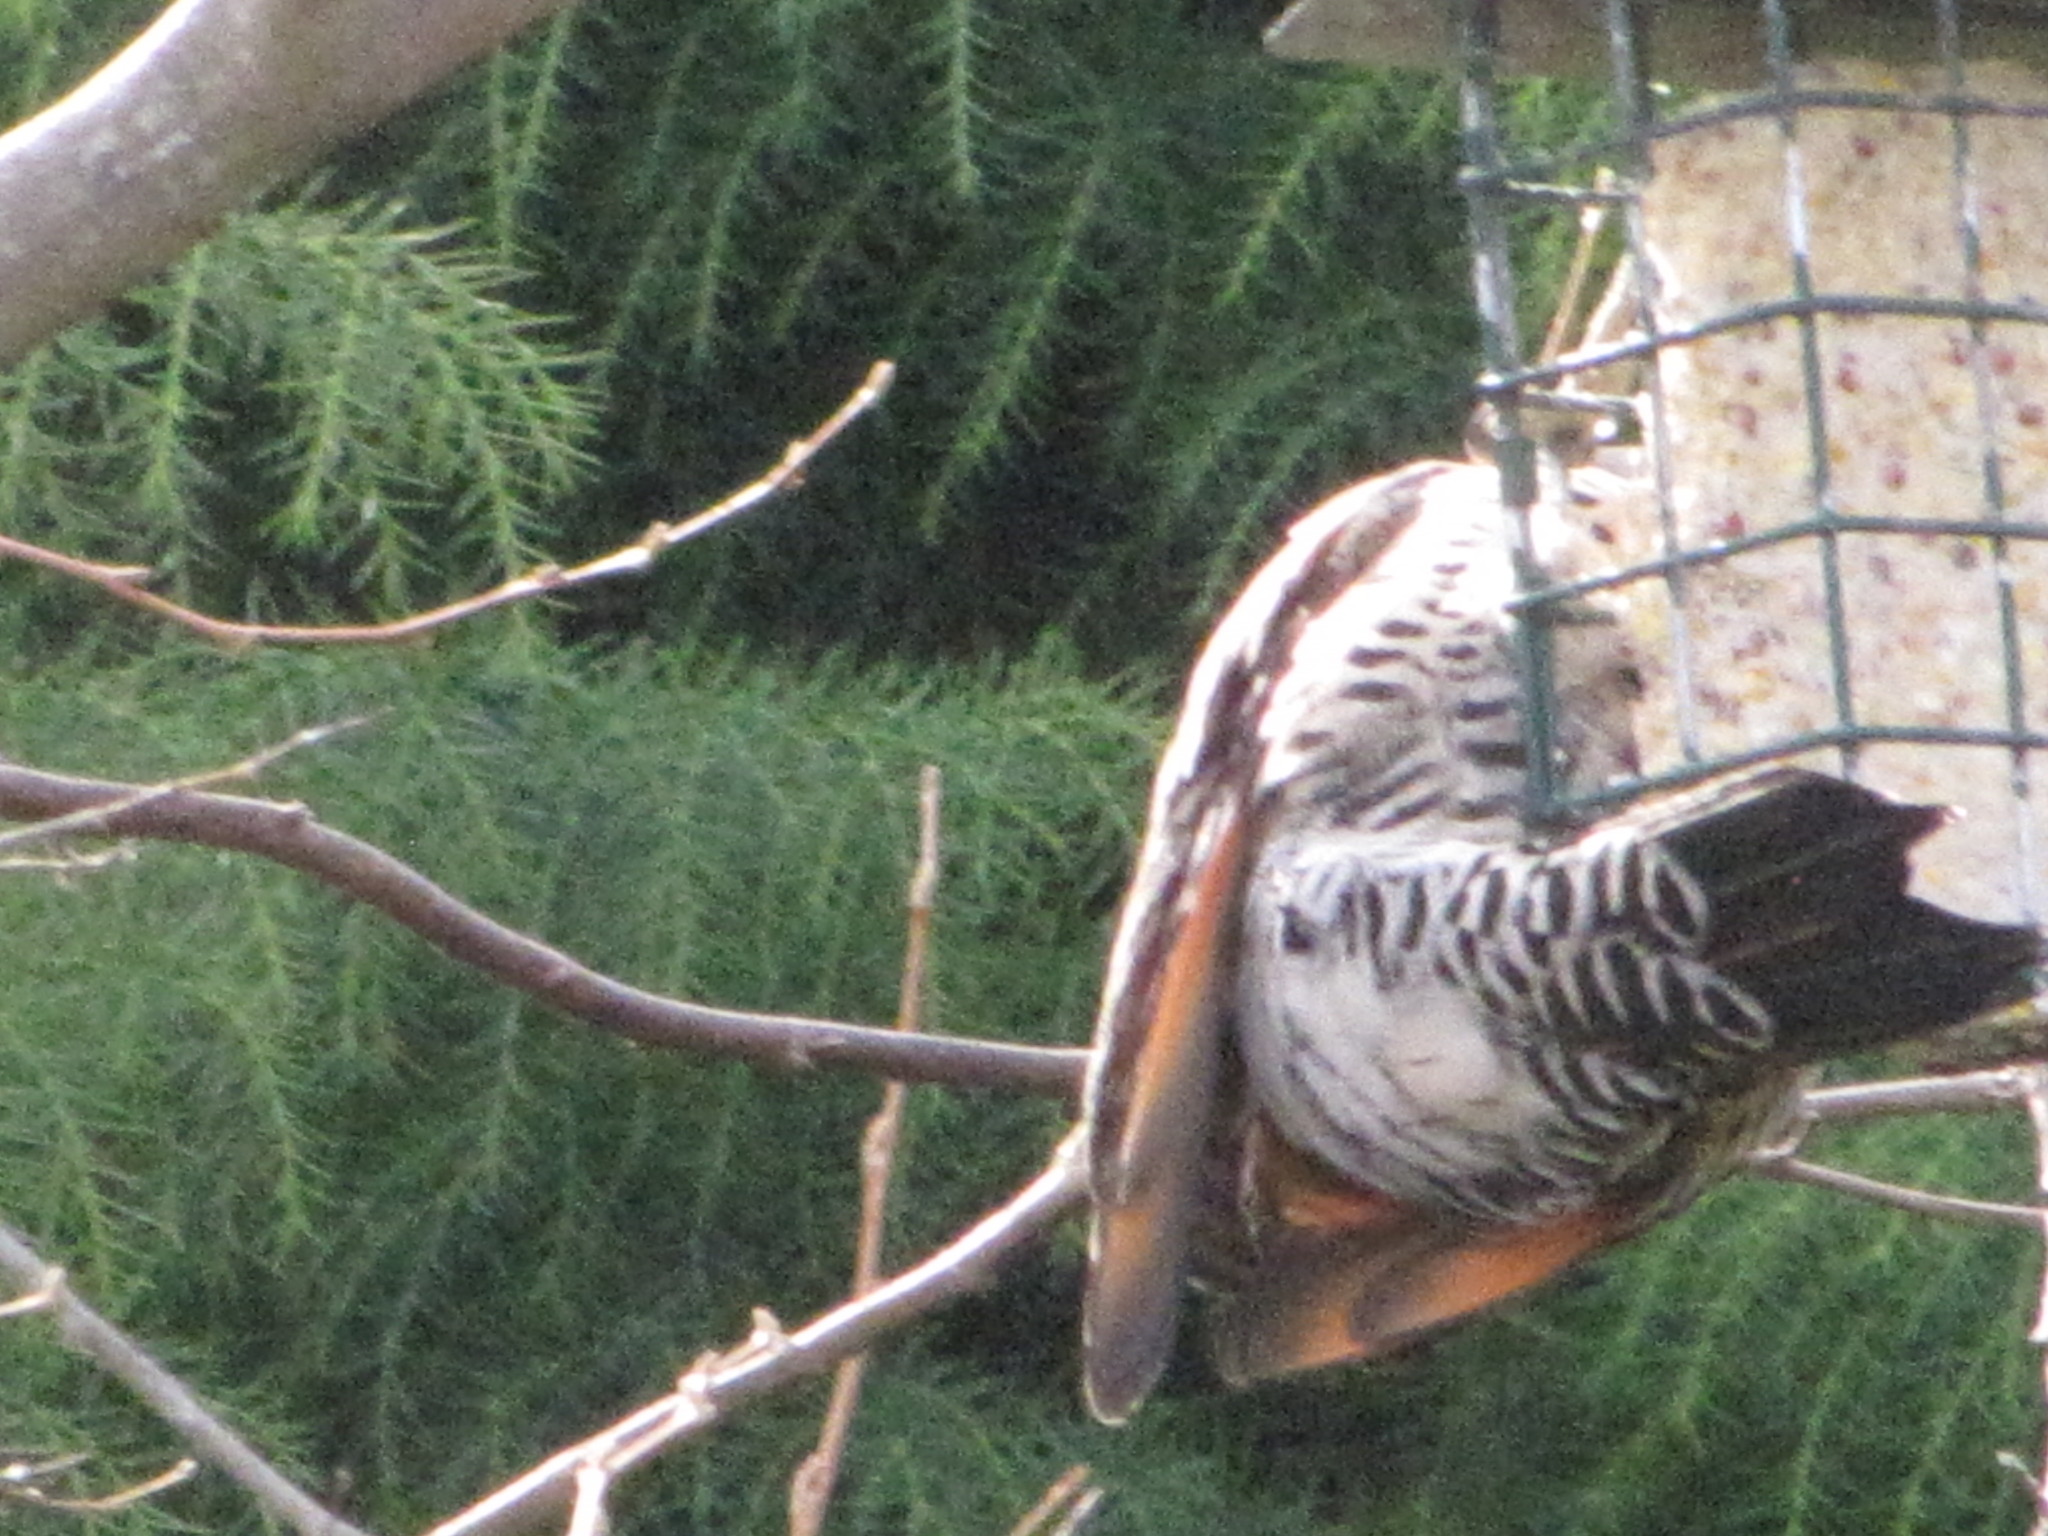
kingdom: Animalia
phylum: Chordata
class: Aves
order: Piciformes
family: Picidae
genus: Colaptes
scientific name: Colaptes auratus
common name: Northern flicker
